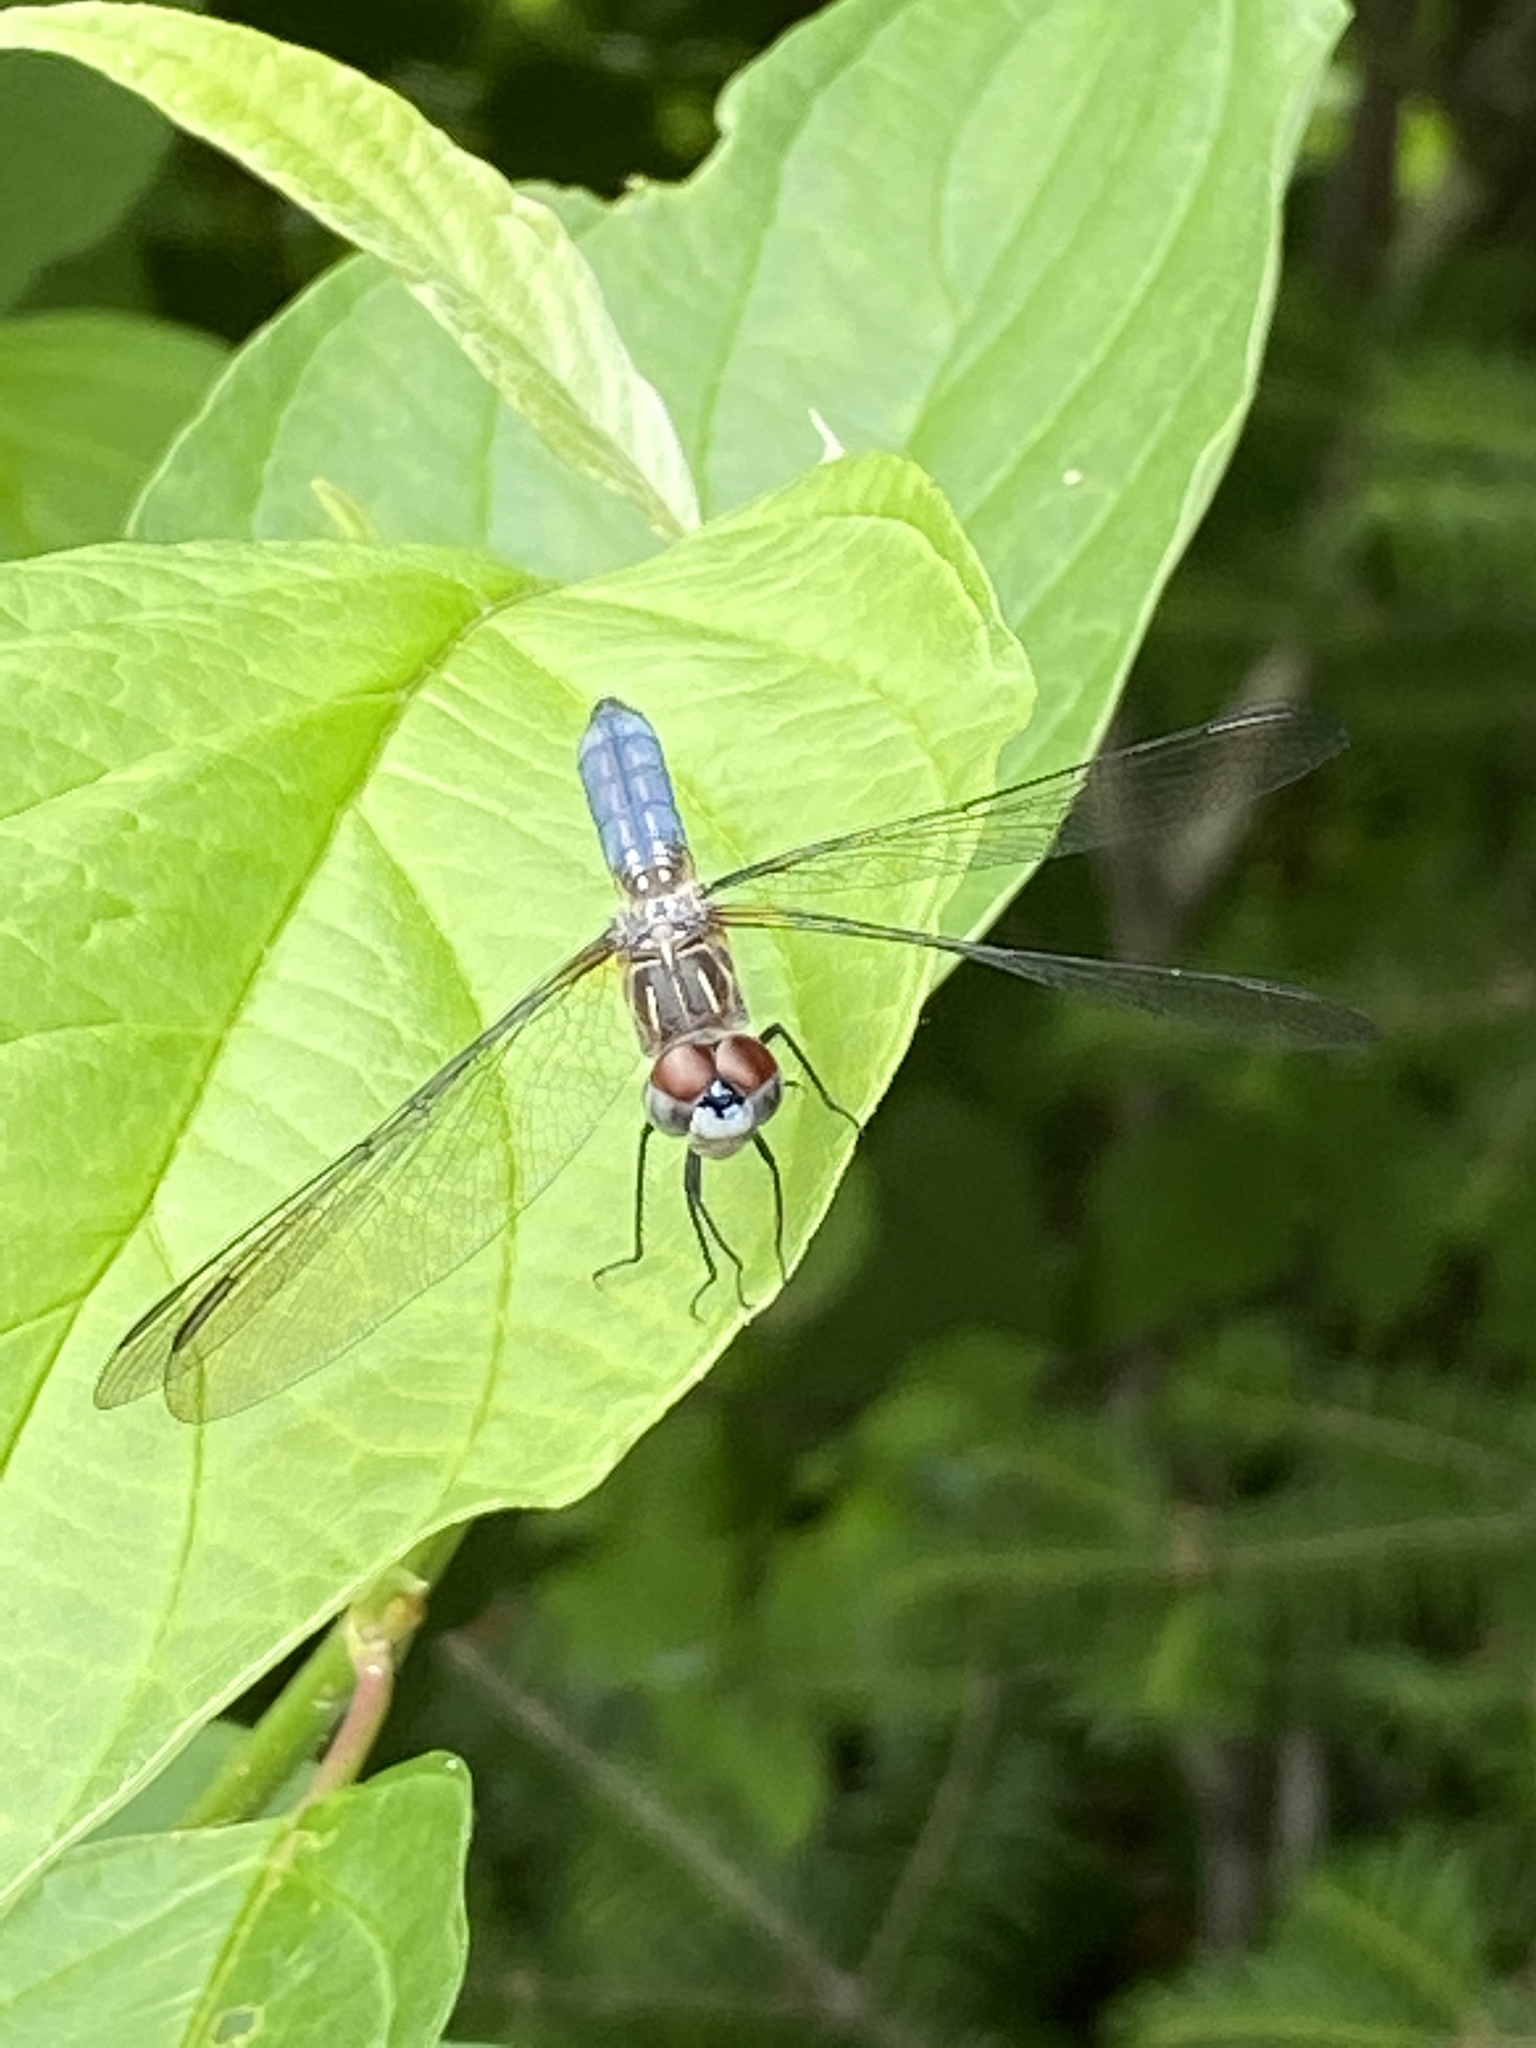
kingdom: Animalia
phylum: Arthropoda
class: Insecta
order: Odonata
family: Libellulidae
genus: Pachydiplax
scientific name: Pachydiplax longipennis
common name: Blue dasher
